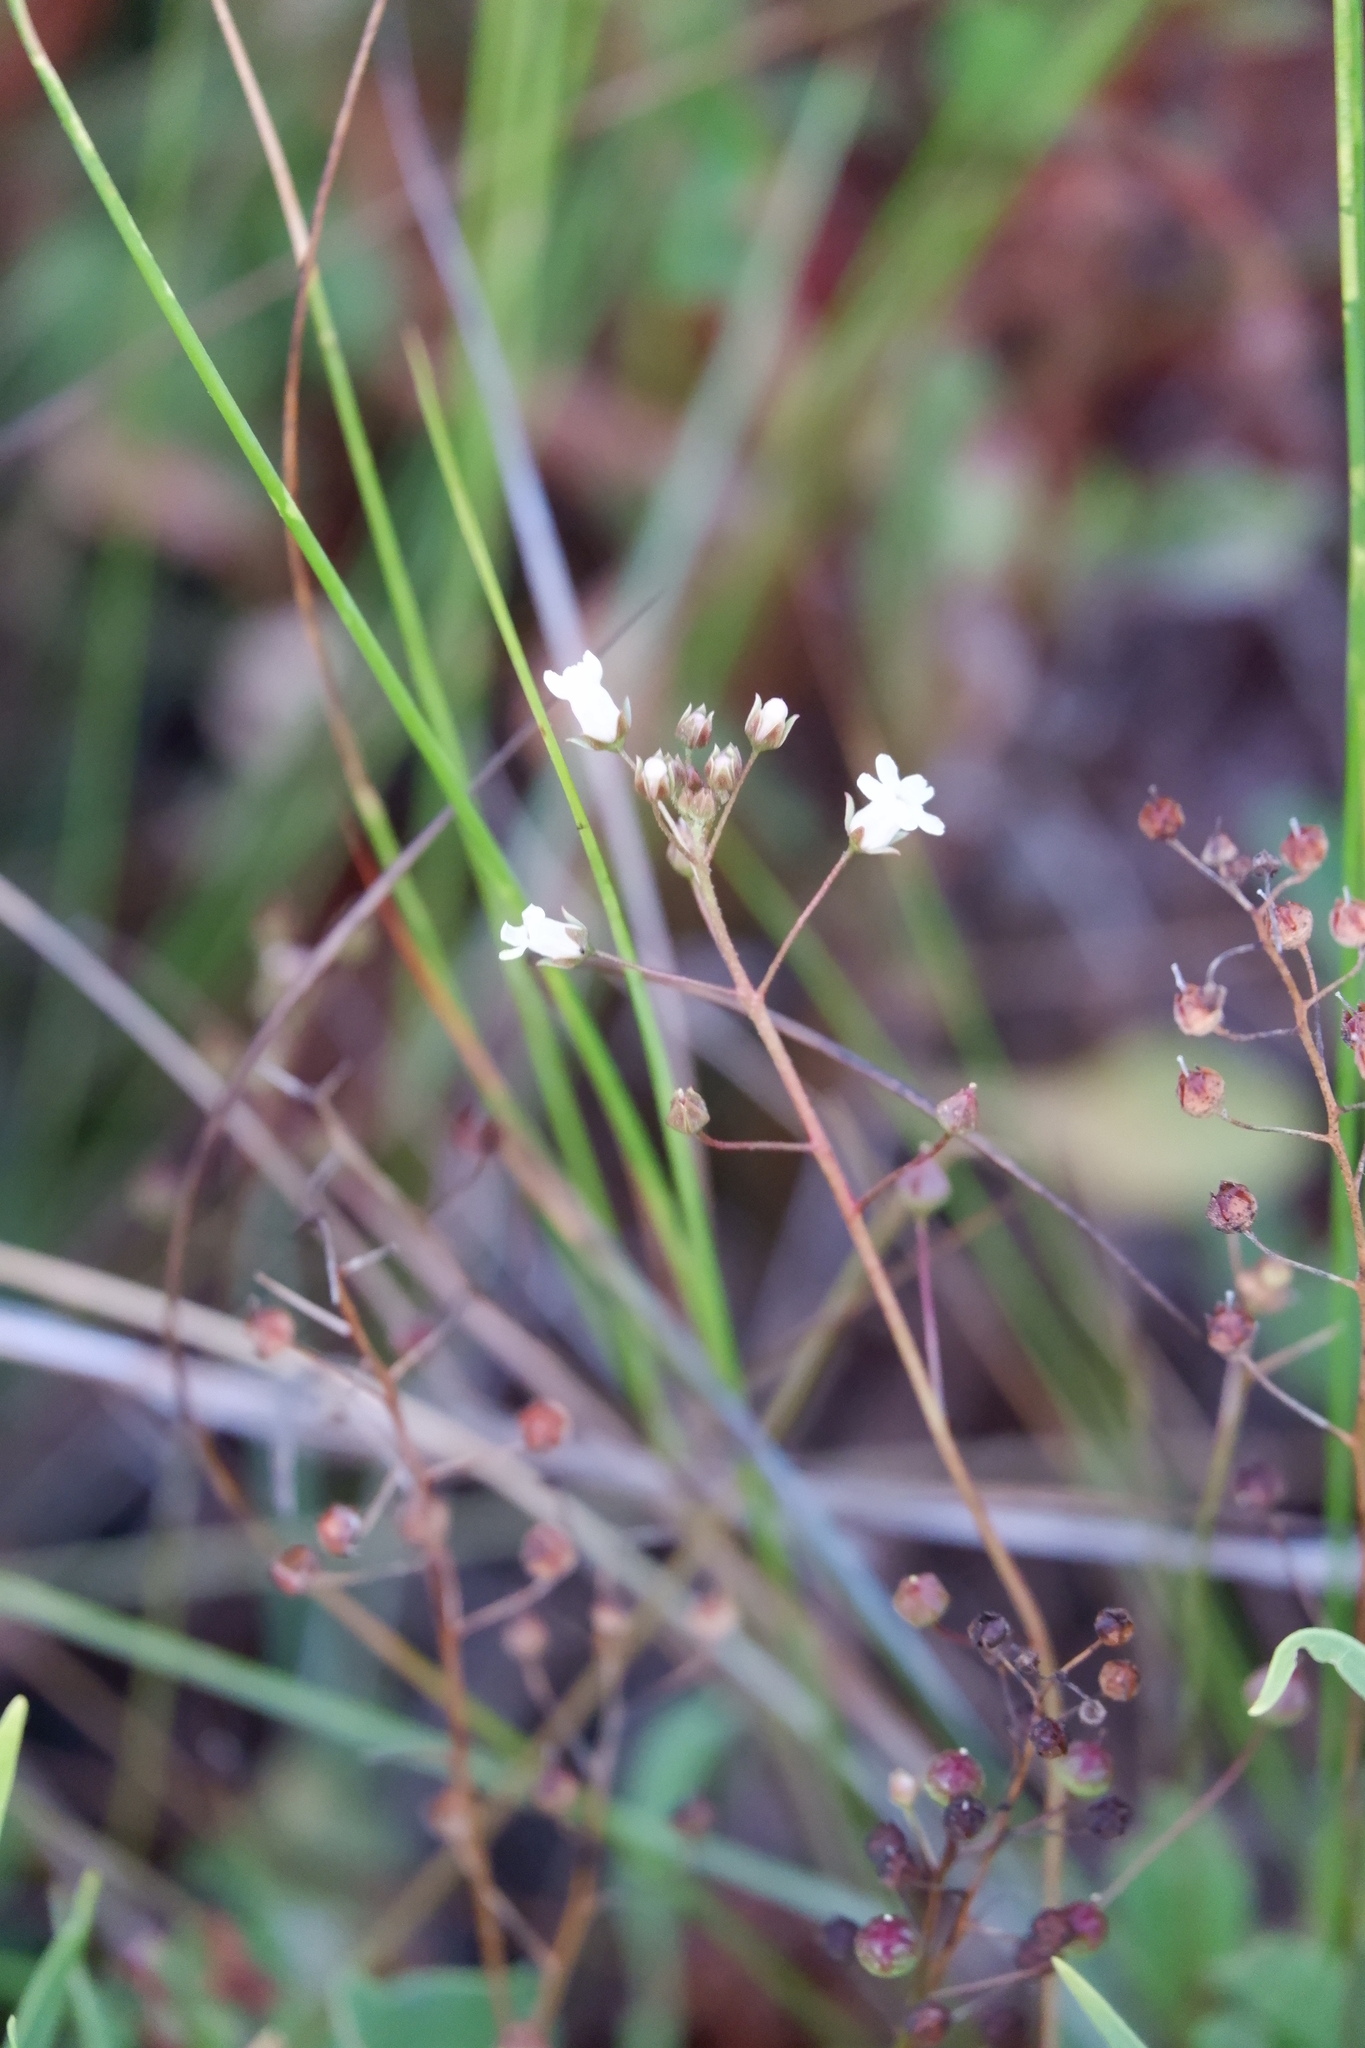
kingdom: Plantae
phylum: Tracheophyta
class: Magnoliopsida
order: Ericales
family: Primulaceae
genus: Samolus
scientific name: Samolus ebracteatus
